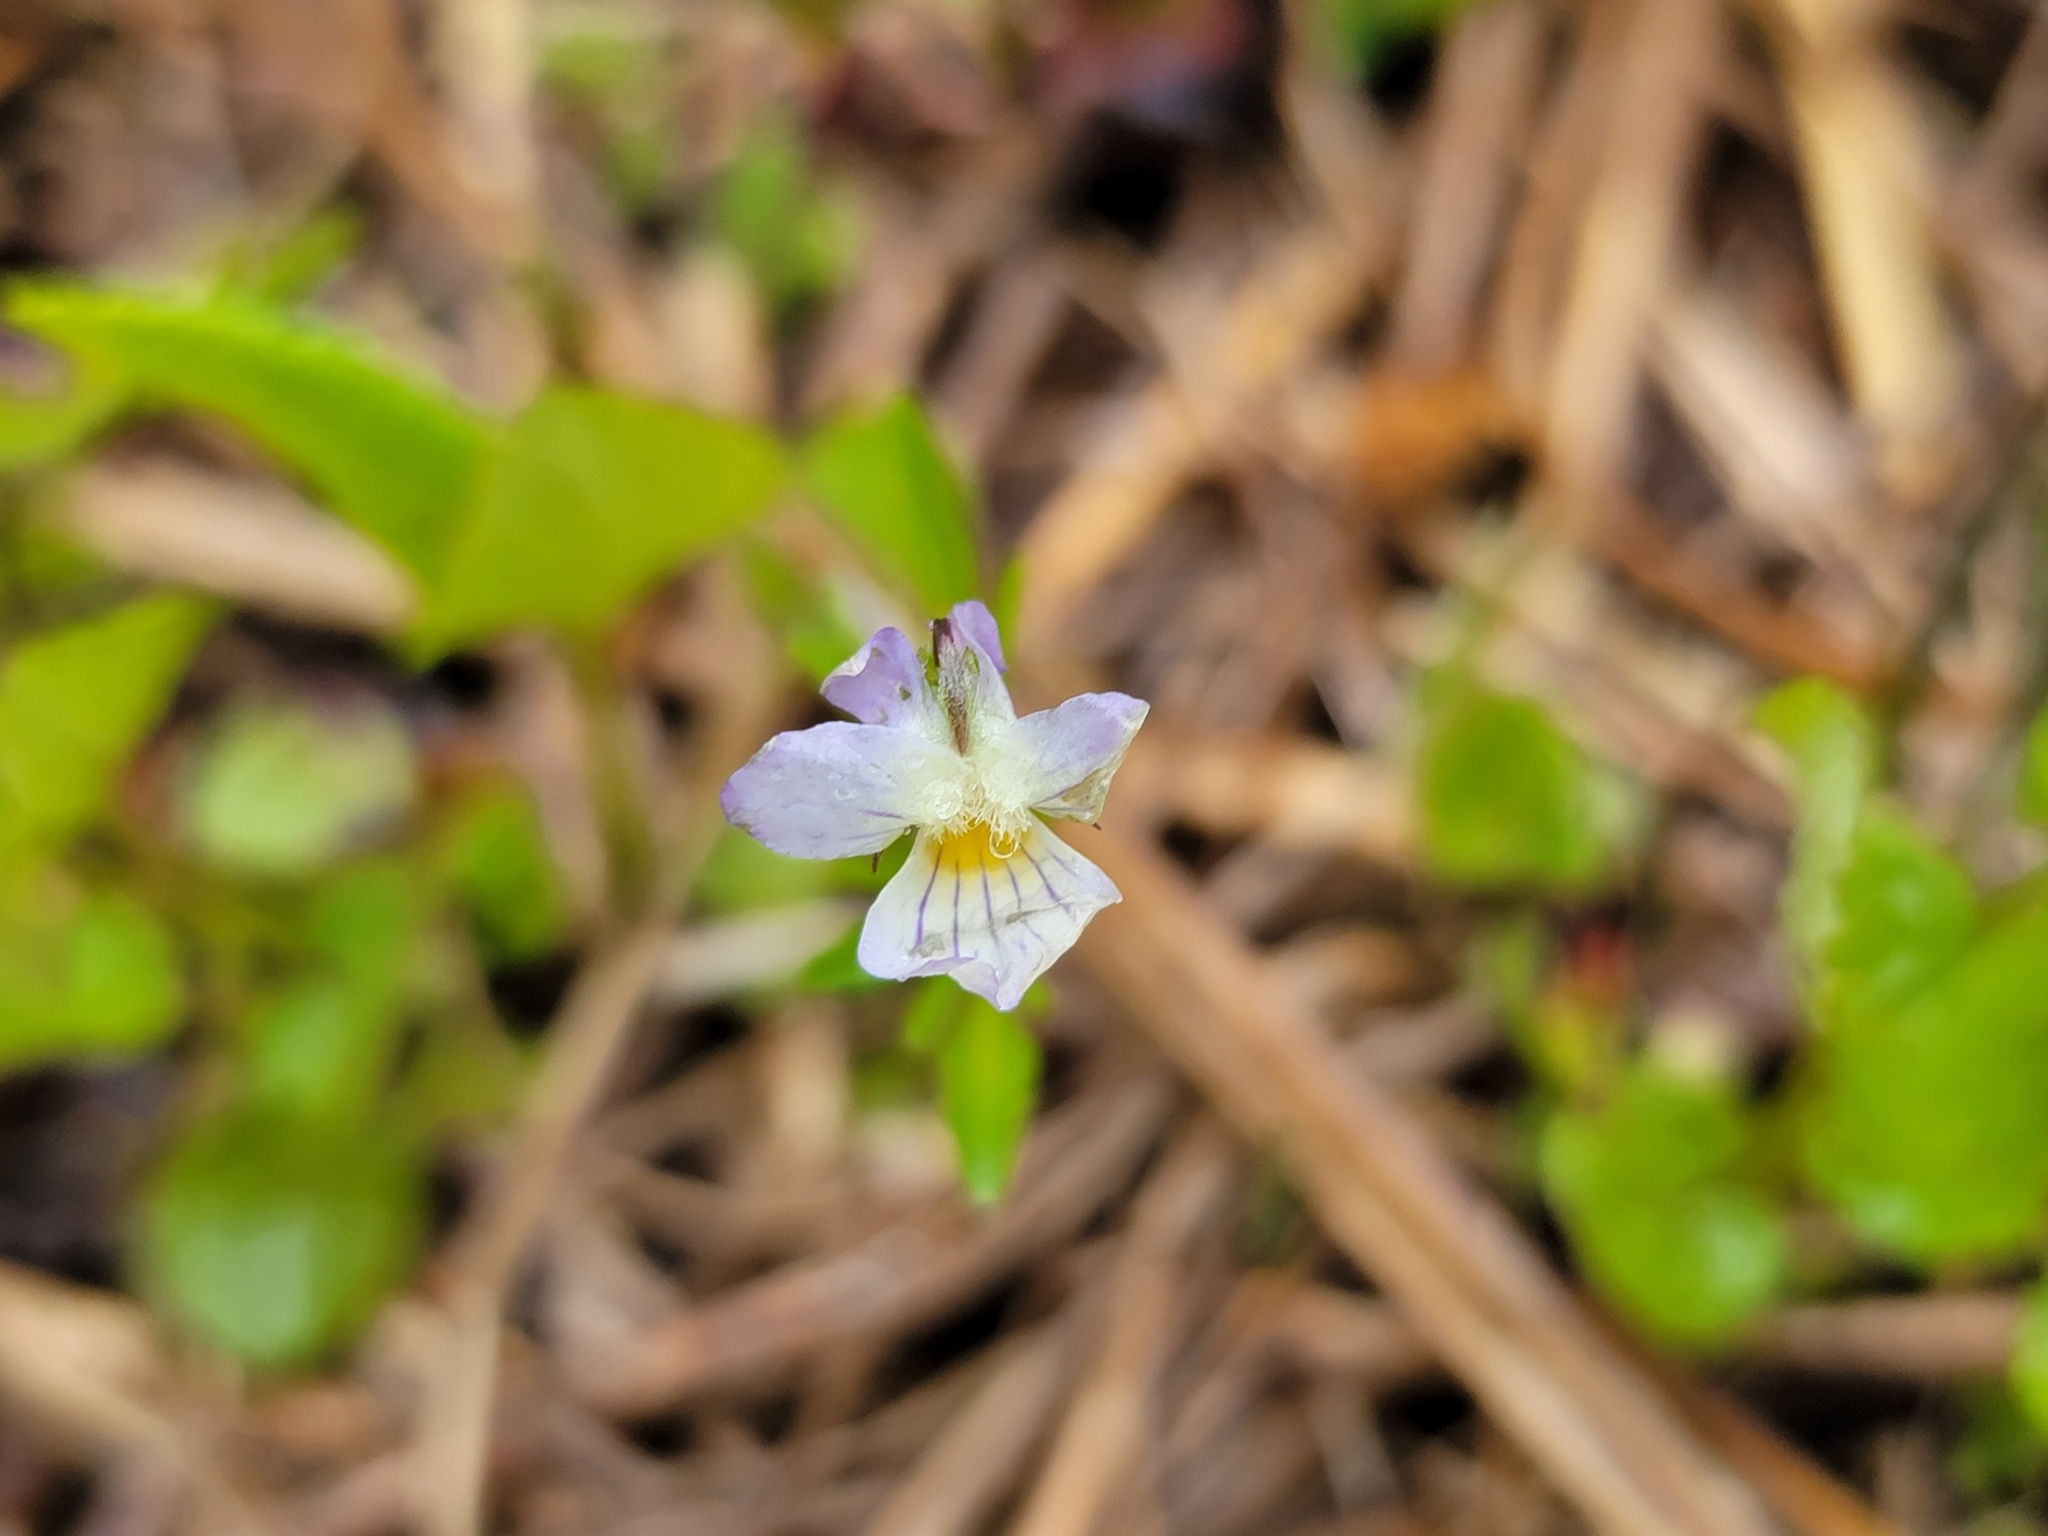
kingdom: Plantae
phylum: Tracheophyta
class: Magnoliopsida
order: Malpighiales
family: Violaceae
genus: Viola
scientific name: Viola rafinesquei
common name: American field pansy
